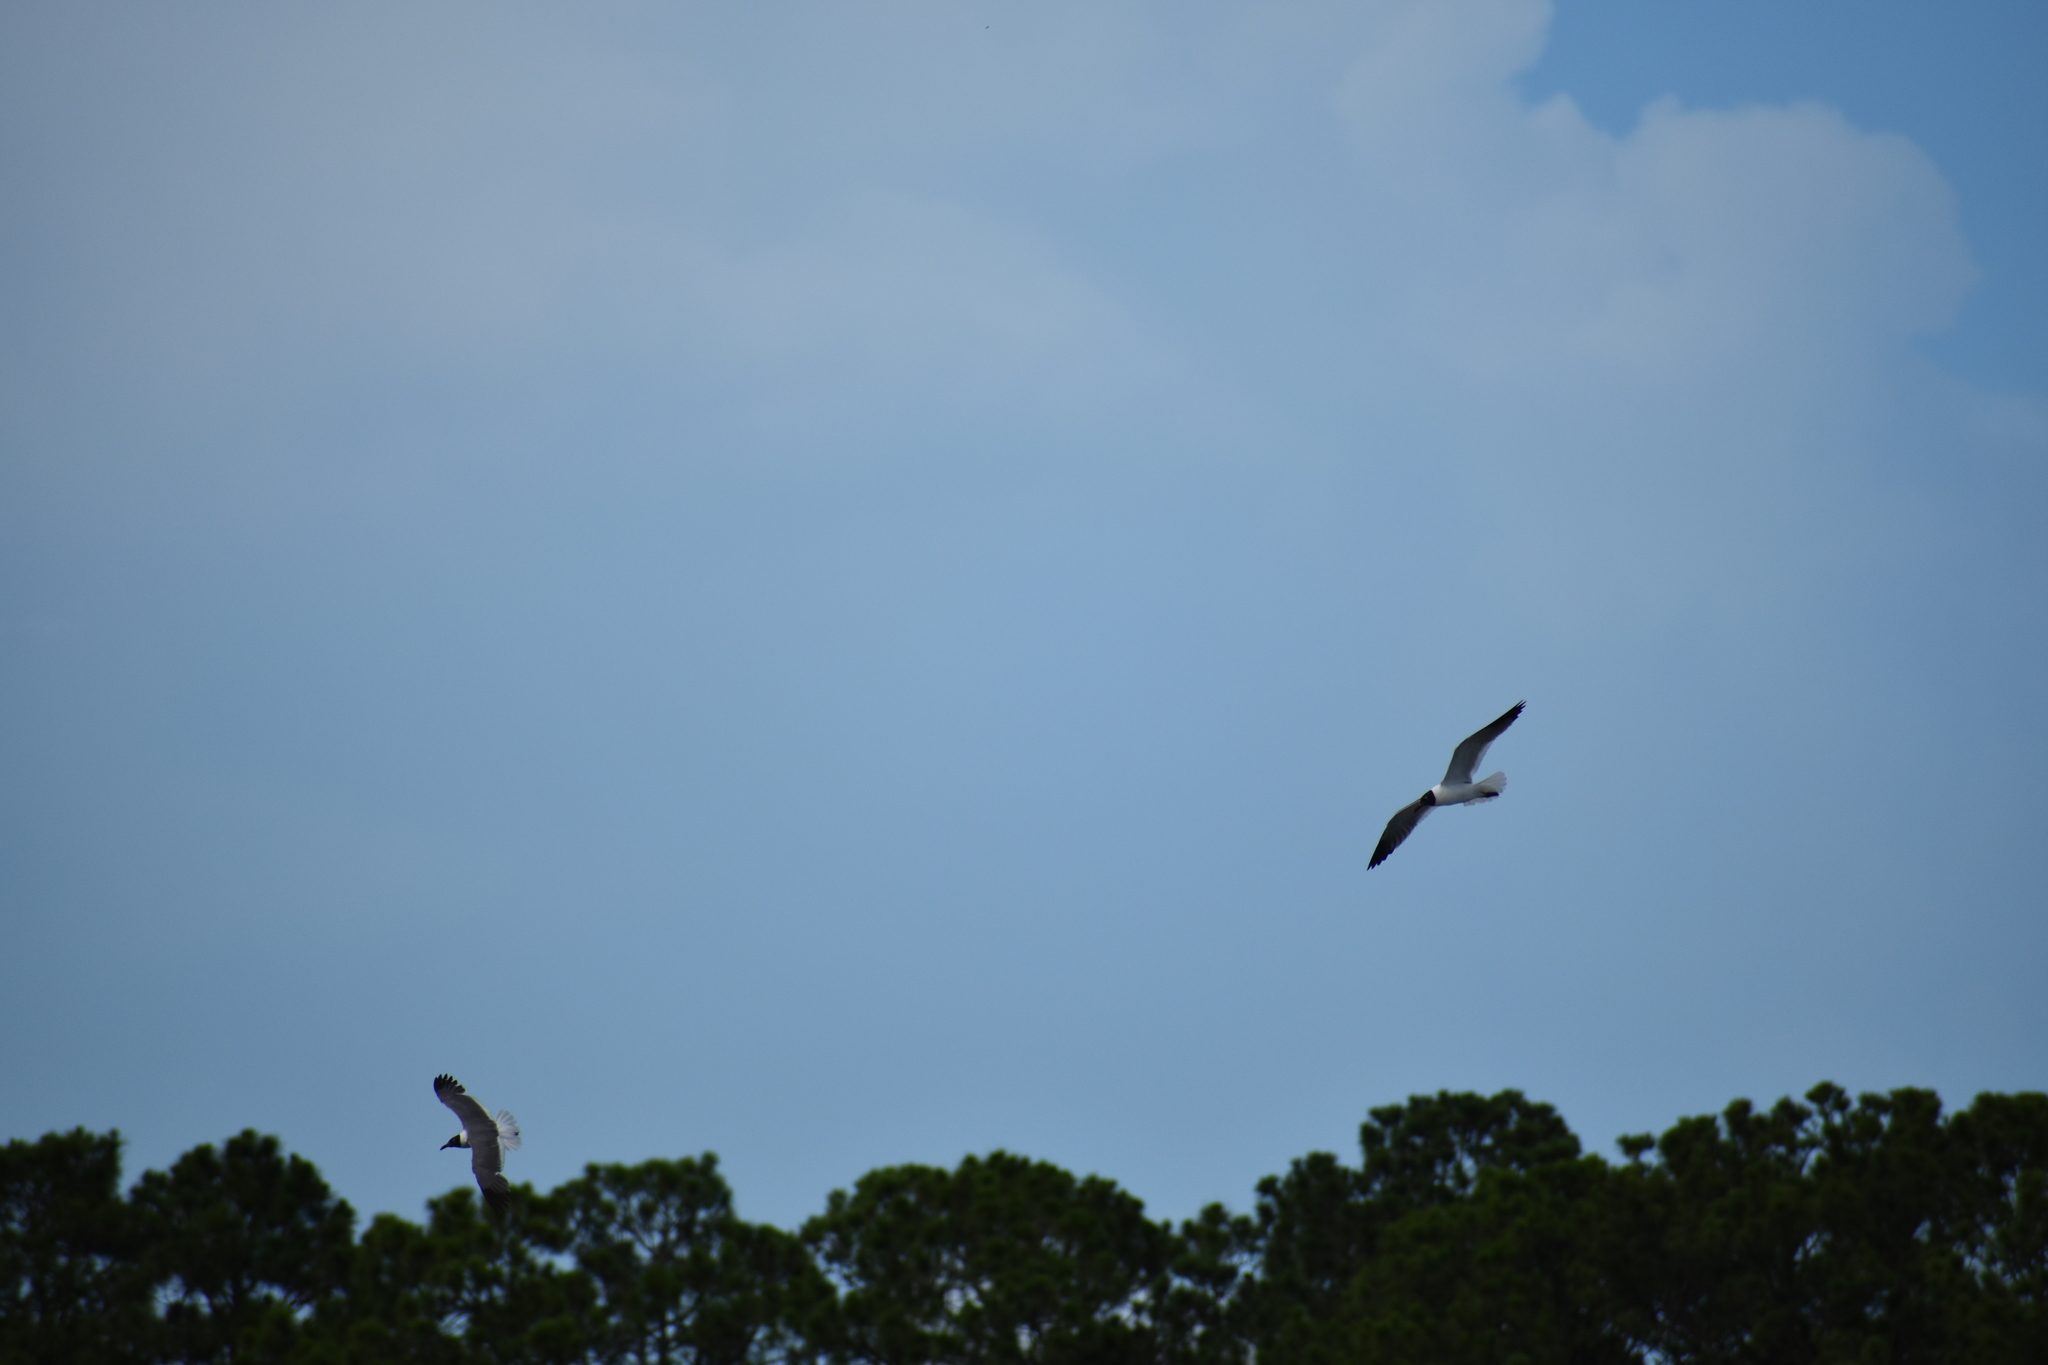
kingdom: Animalia
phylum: Chordata
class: Aves
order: Charadriiformes
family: Laridae
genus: Leucophaeus
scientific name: Leucophaeus atricilla
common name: Laughing gull
